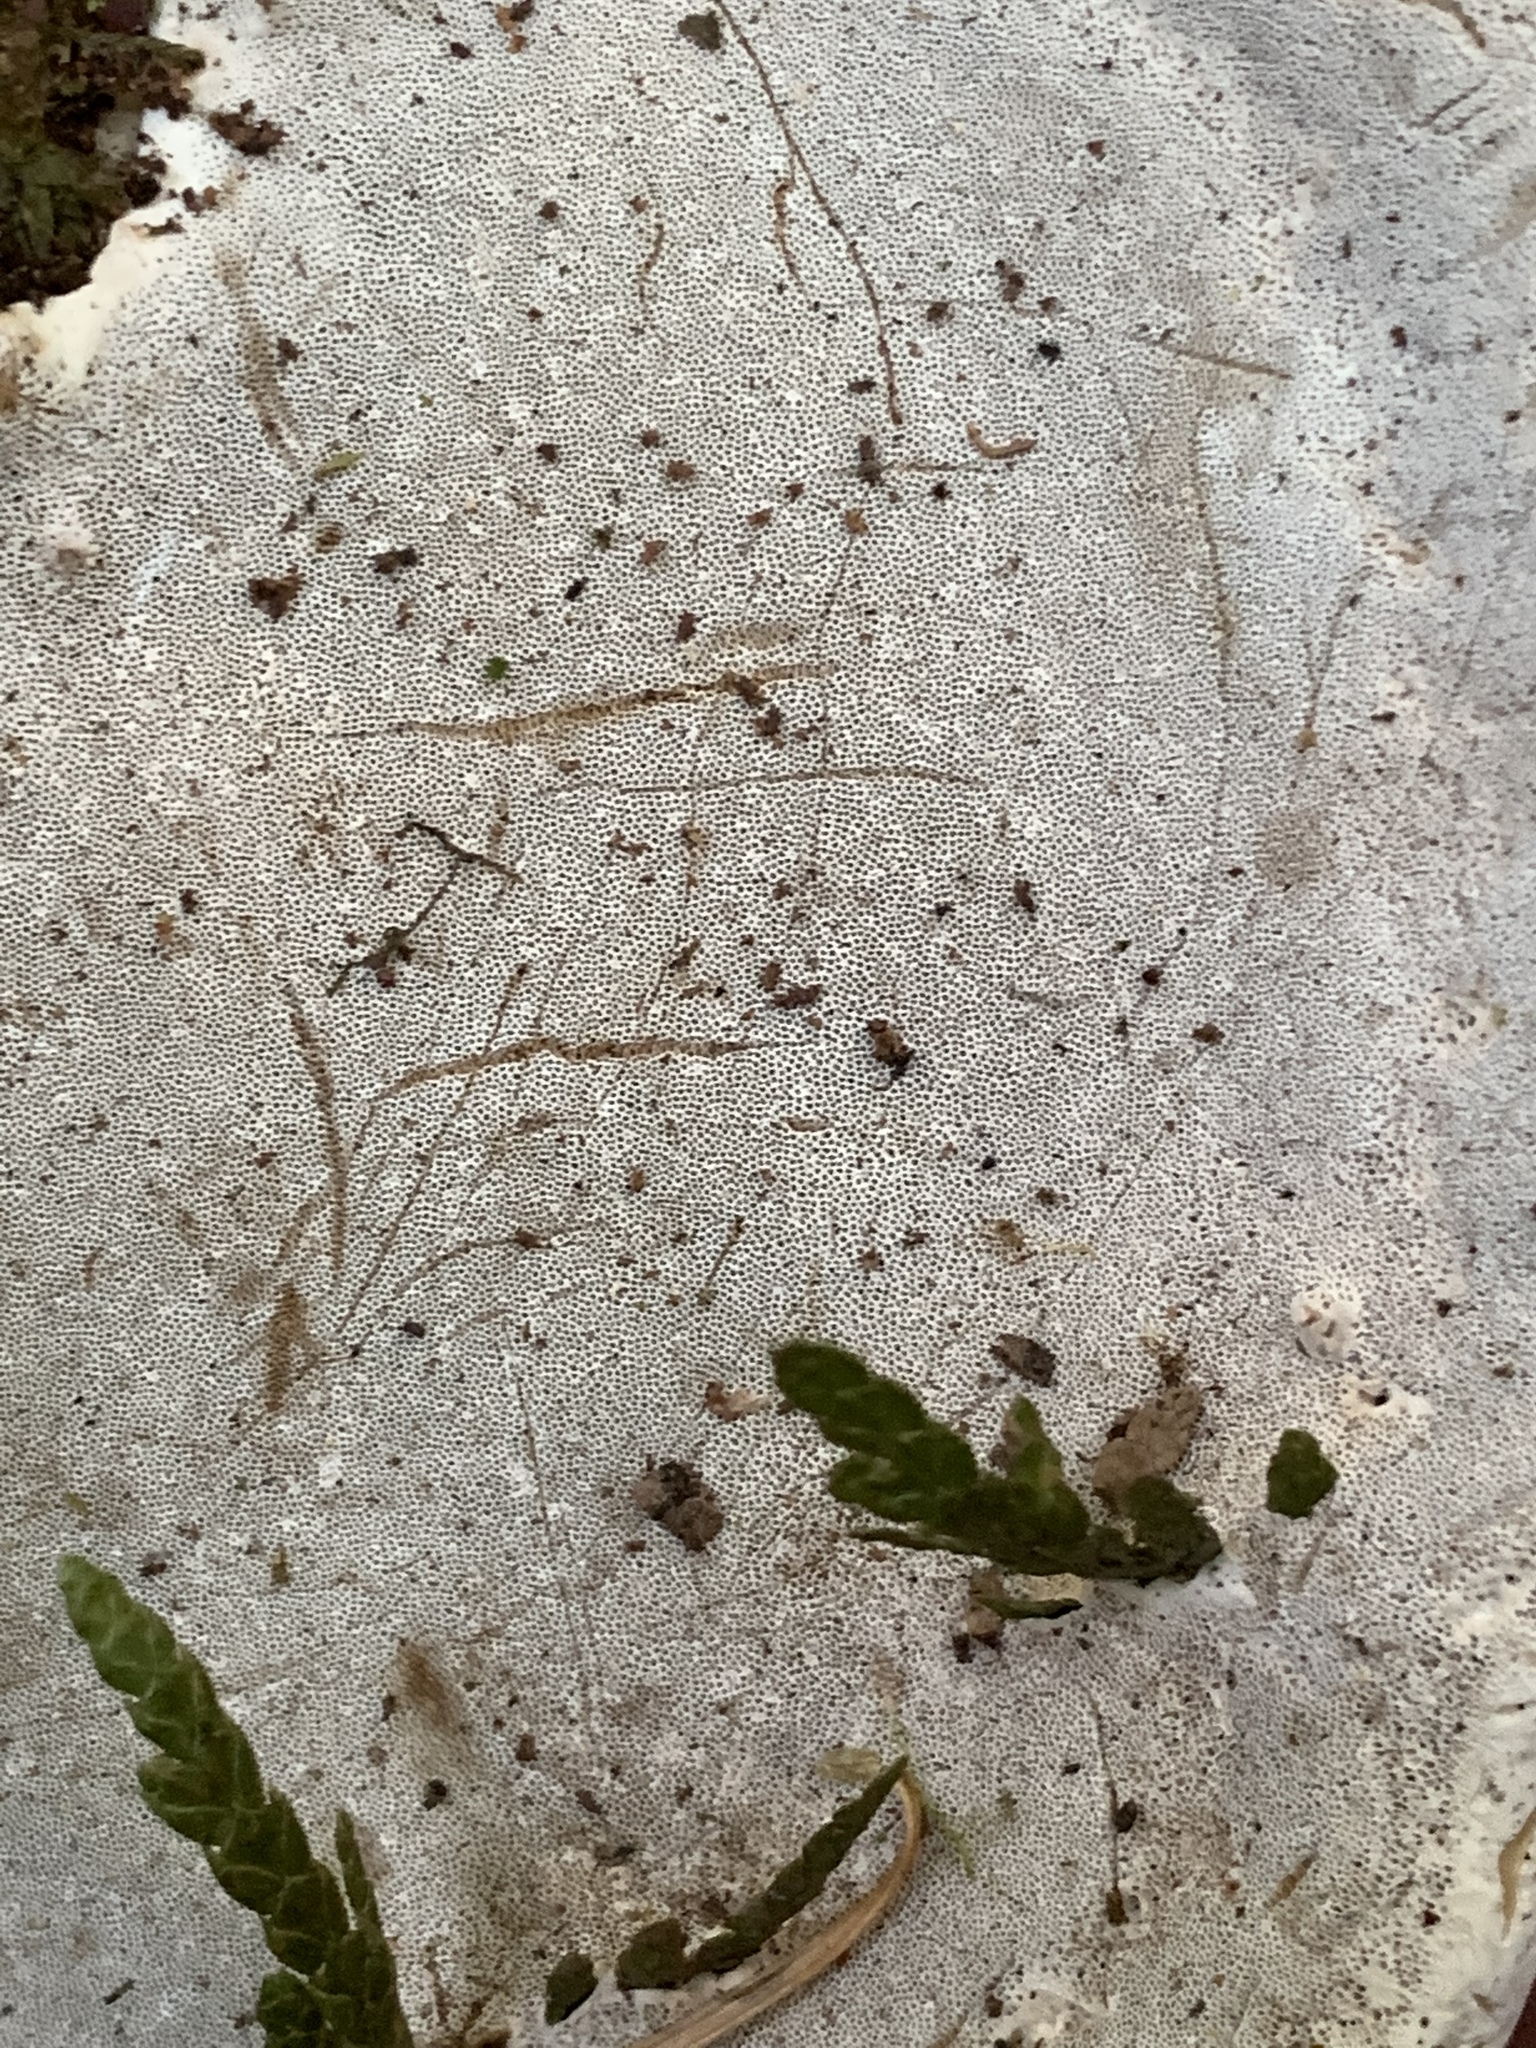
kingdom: Fungi
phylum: Basidiomycota
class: Agaricomycetes
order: Polyporales
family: Polyporaceae
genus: Ganoderma
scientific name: Ganoderma applanatum
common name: Artist's bracket
